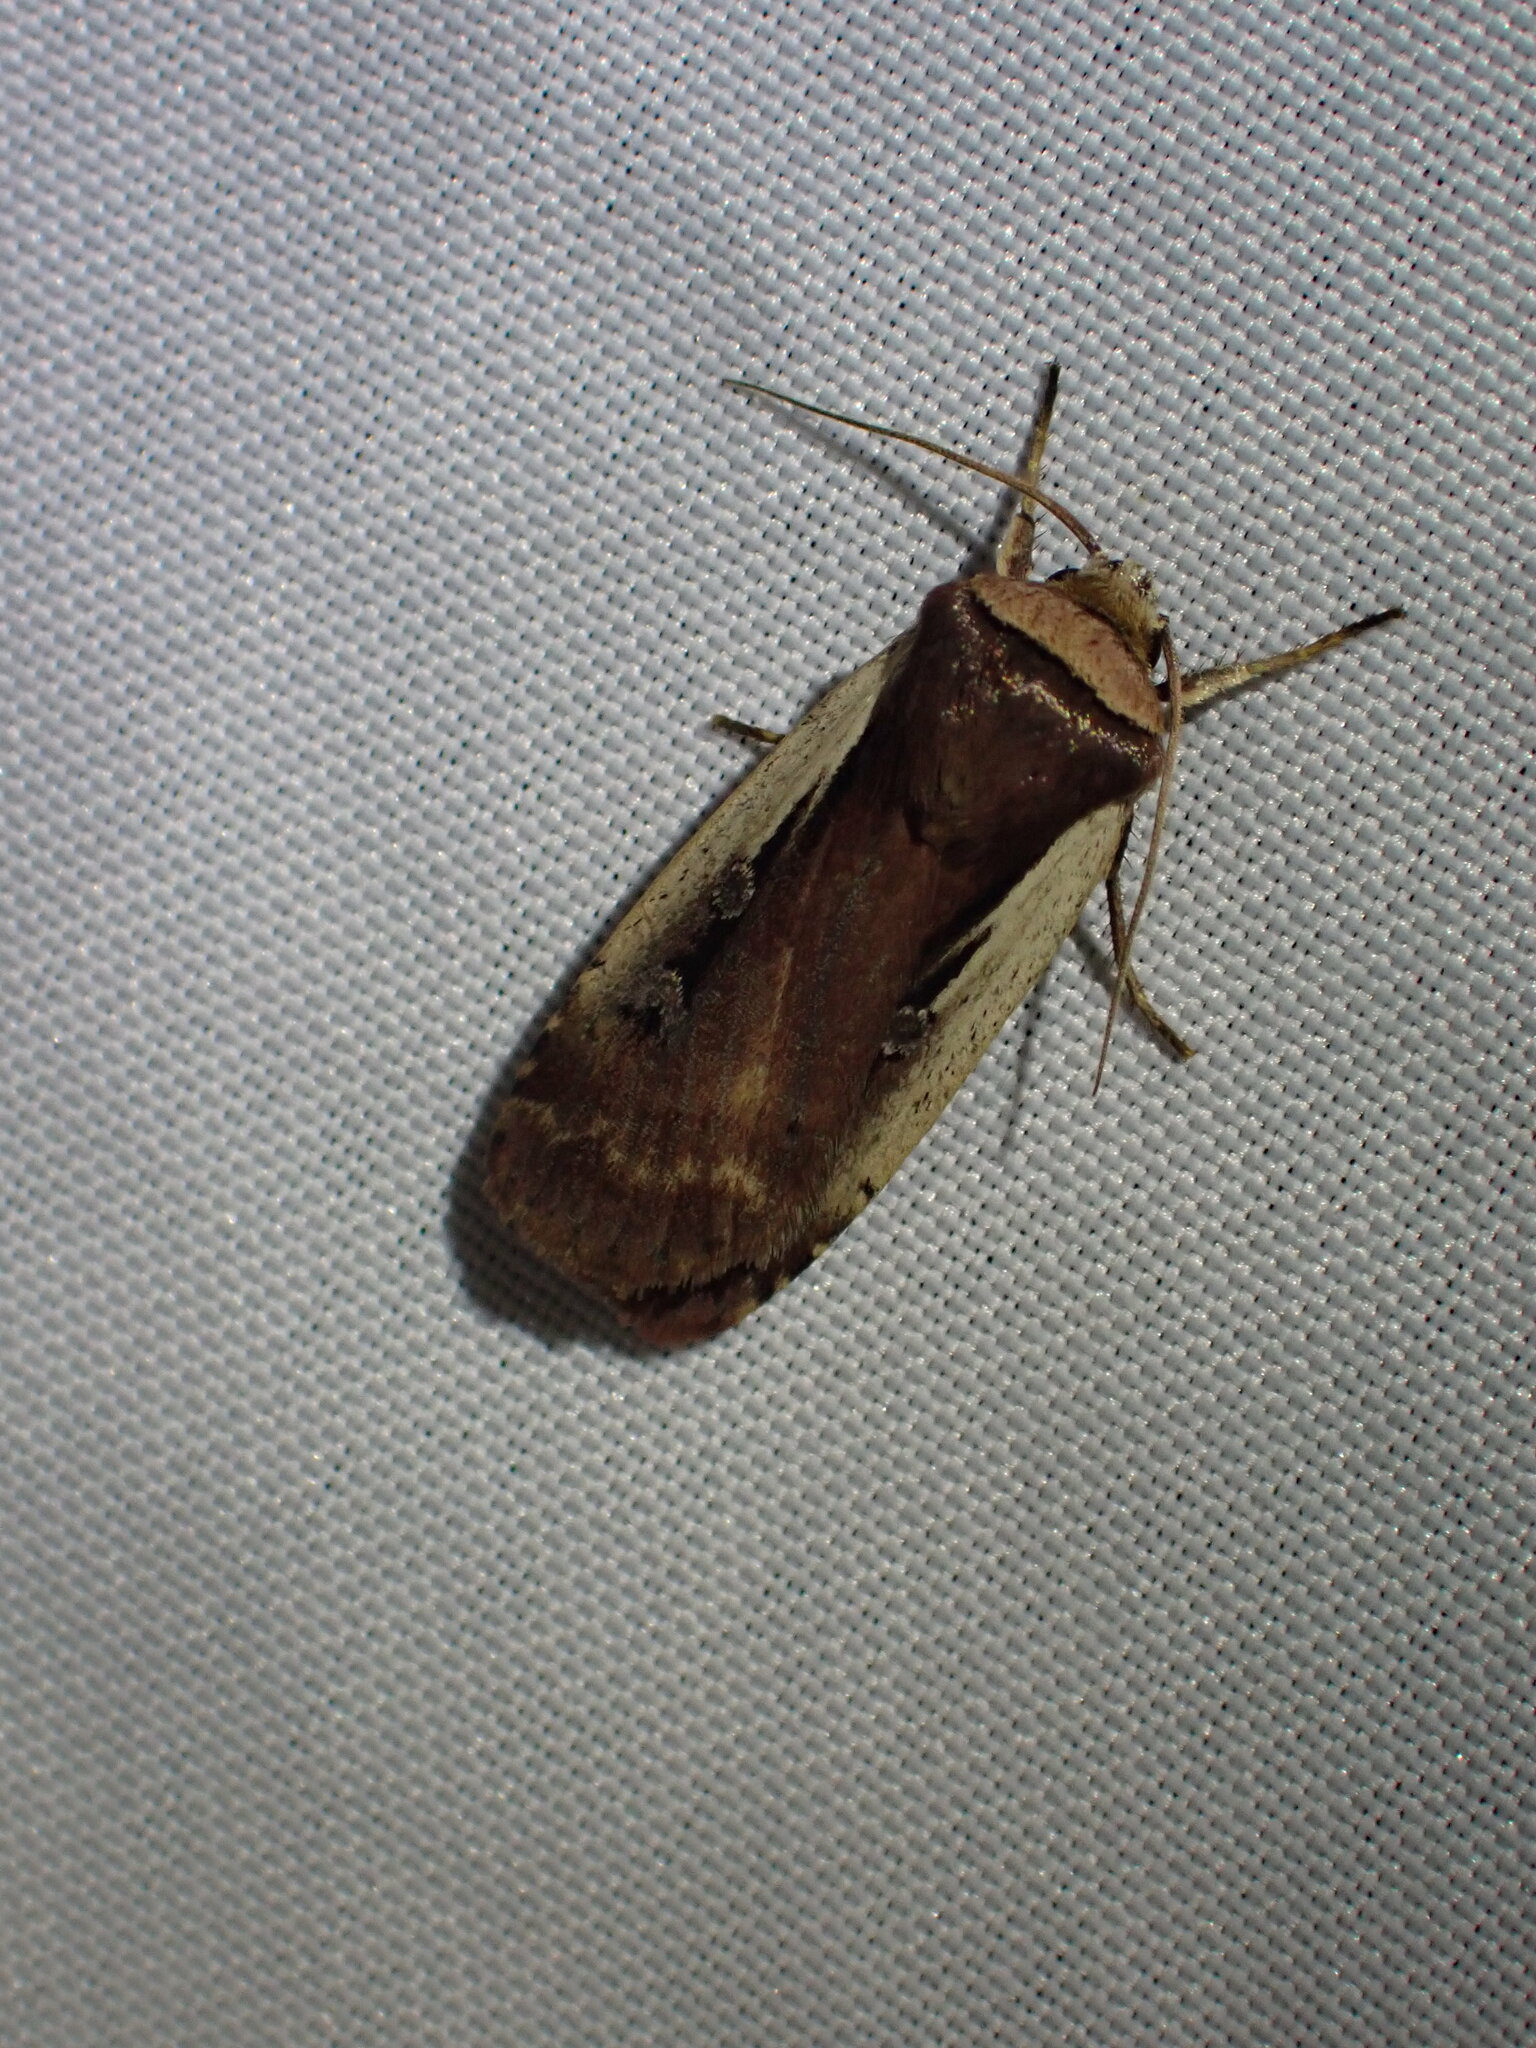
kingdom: Animalia
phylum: Arthropoda
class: Insecta
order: Lepidoptera
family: Noctuidae
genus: Ochropleura
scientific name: Ochropleura implecta
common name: Flame-shouldered dart
